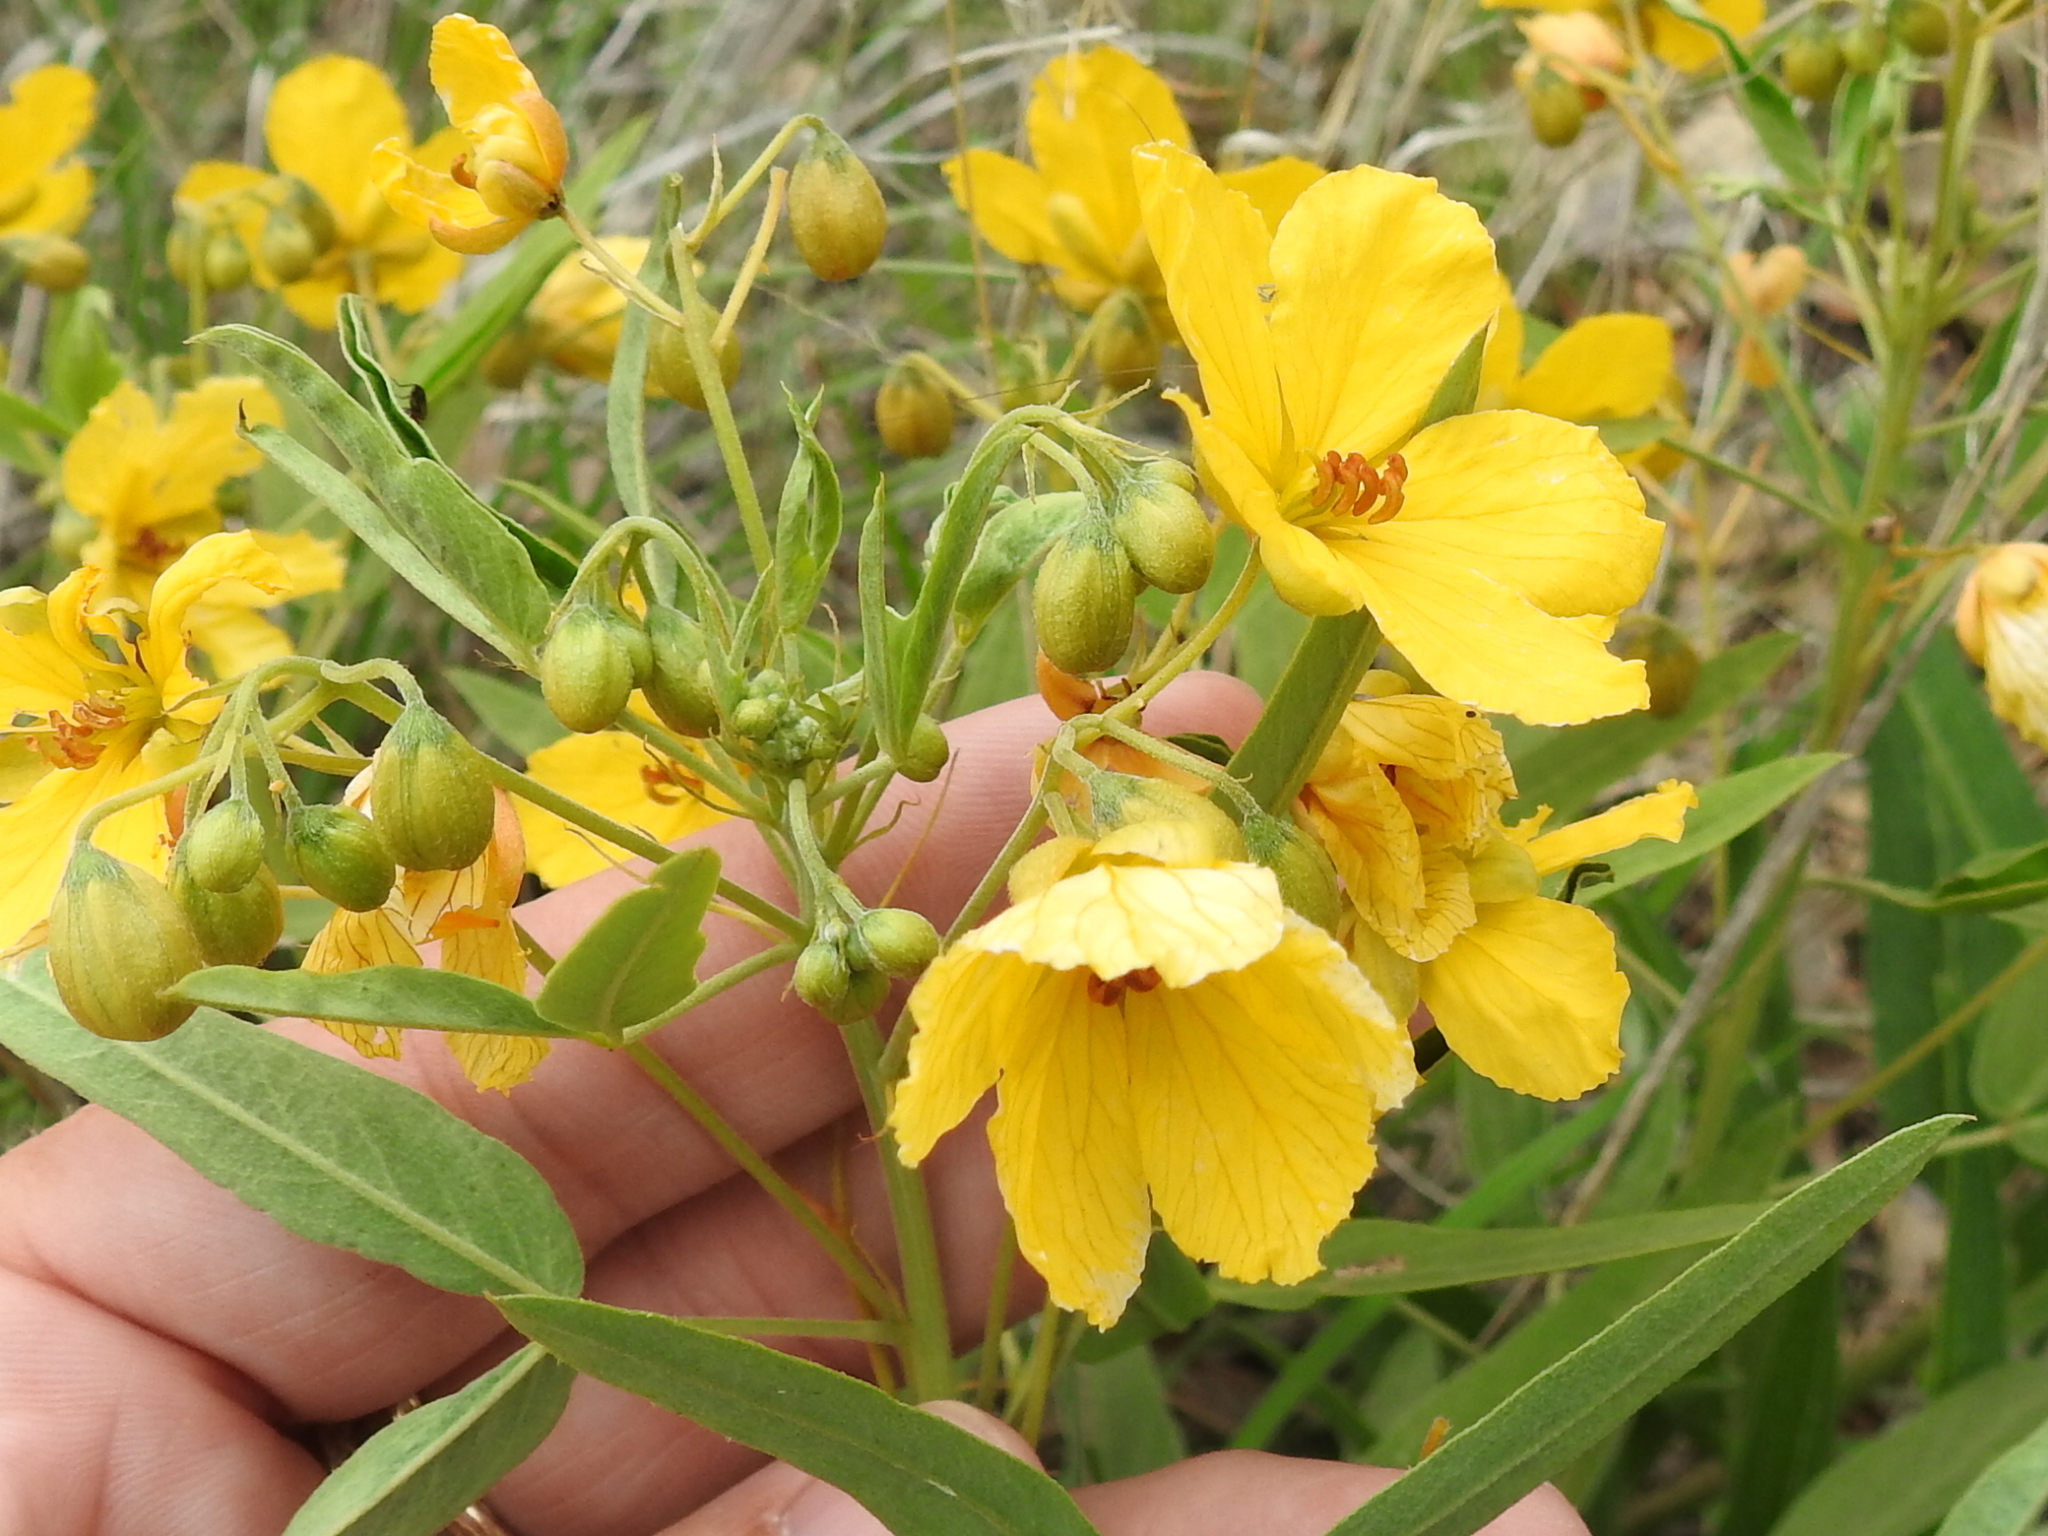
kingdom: Plantae
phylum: Tracheophyta
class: Magnoliopsida
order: Fabales
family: Fabaceae
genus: Senna
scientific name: Senna roemeriana
